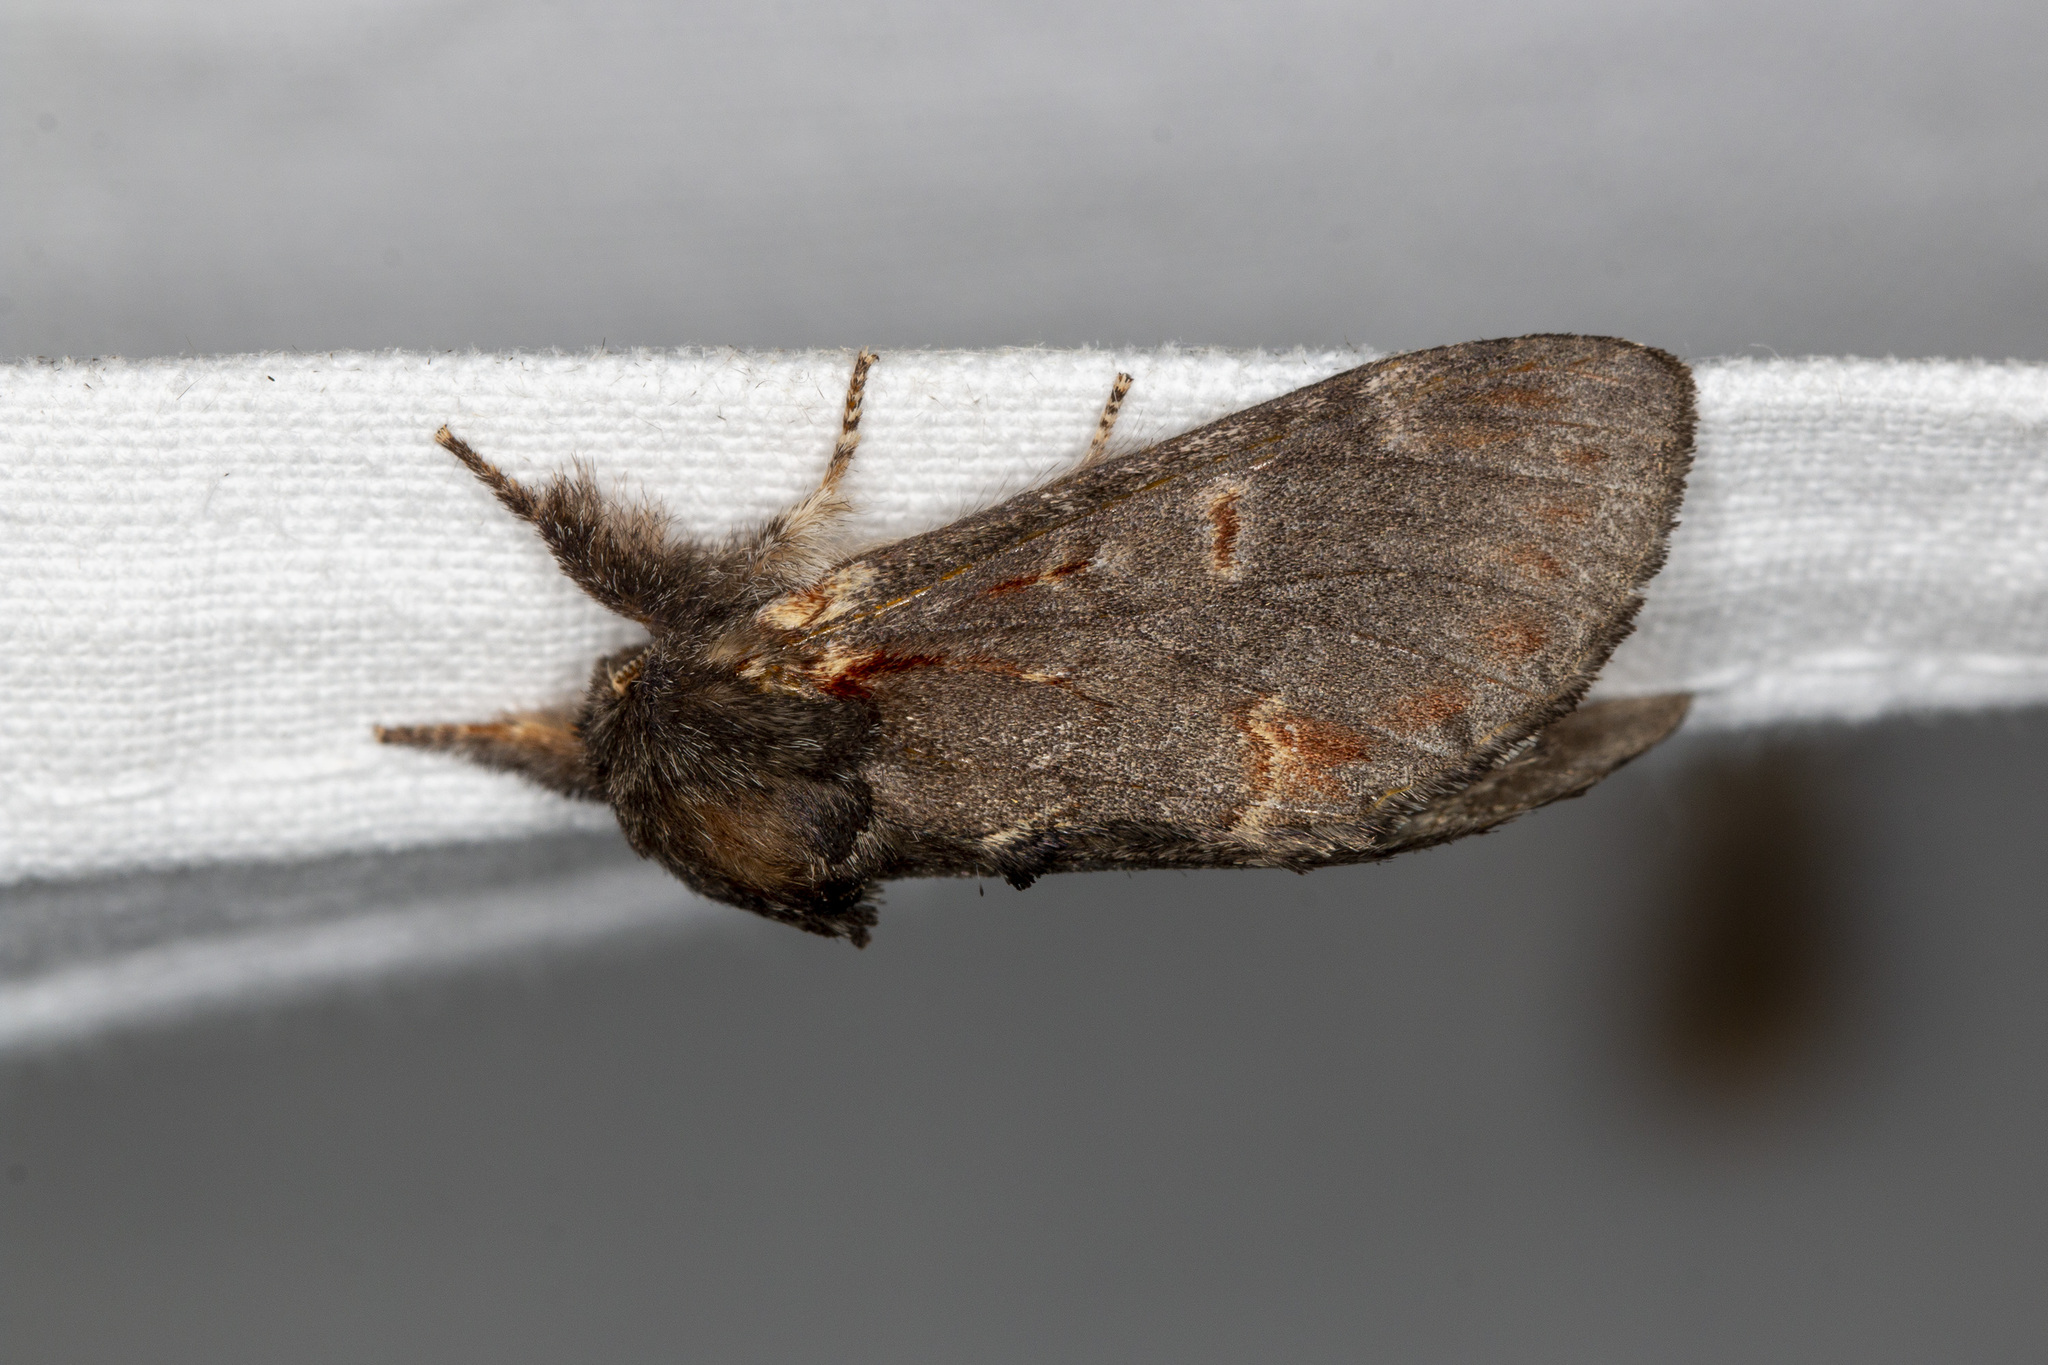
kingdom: Animalia
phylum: Arthropoda
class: Insecta
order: Lepidoptera
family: Notodontidae
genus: Notodonta
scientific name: Notodonta dromedarius
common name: Iron prominent
